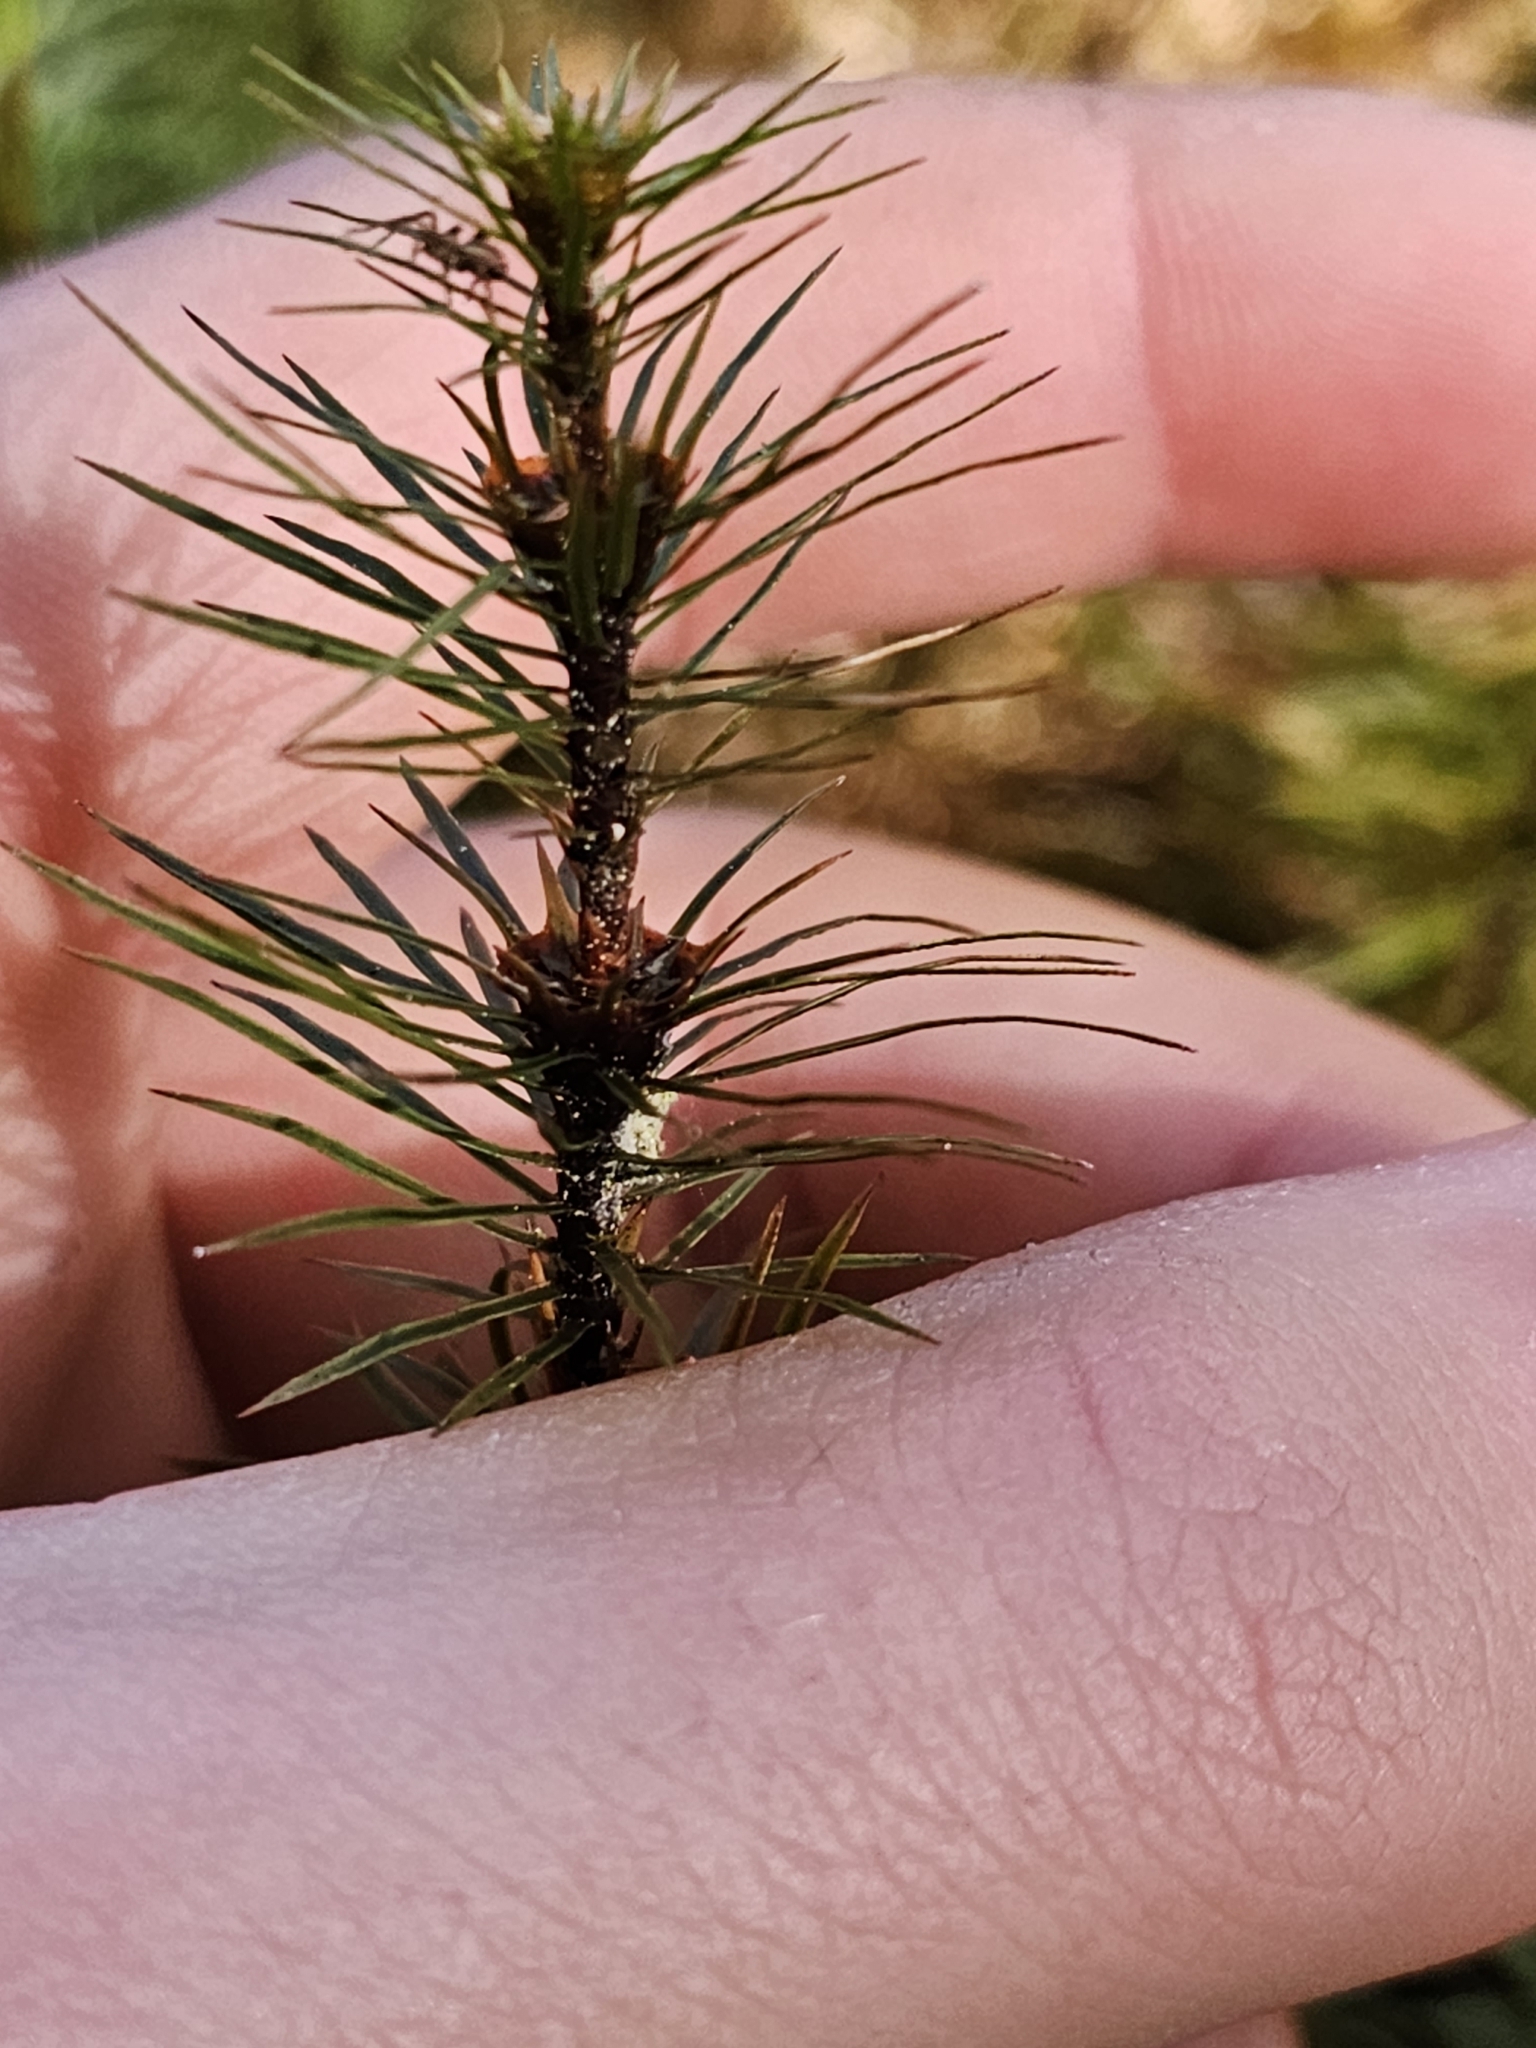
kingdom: Plantae
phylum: Bryophyta
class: Polytrichopsida
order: Polytrichales
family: Polytrichaceae
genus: Dawsonia
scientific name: Dawsonia superba
